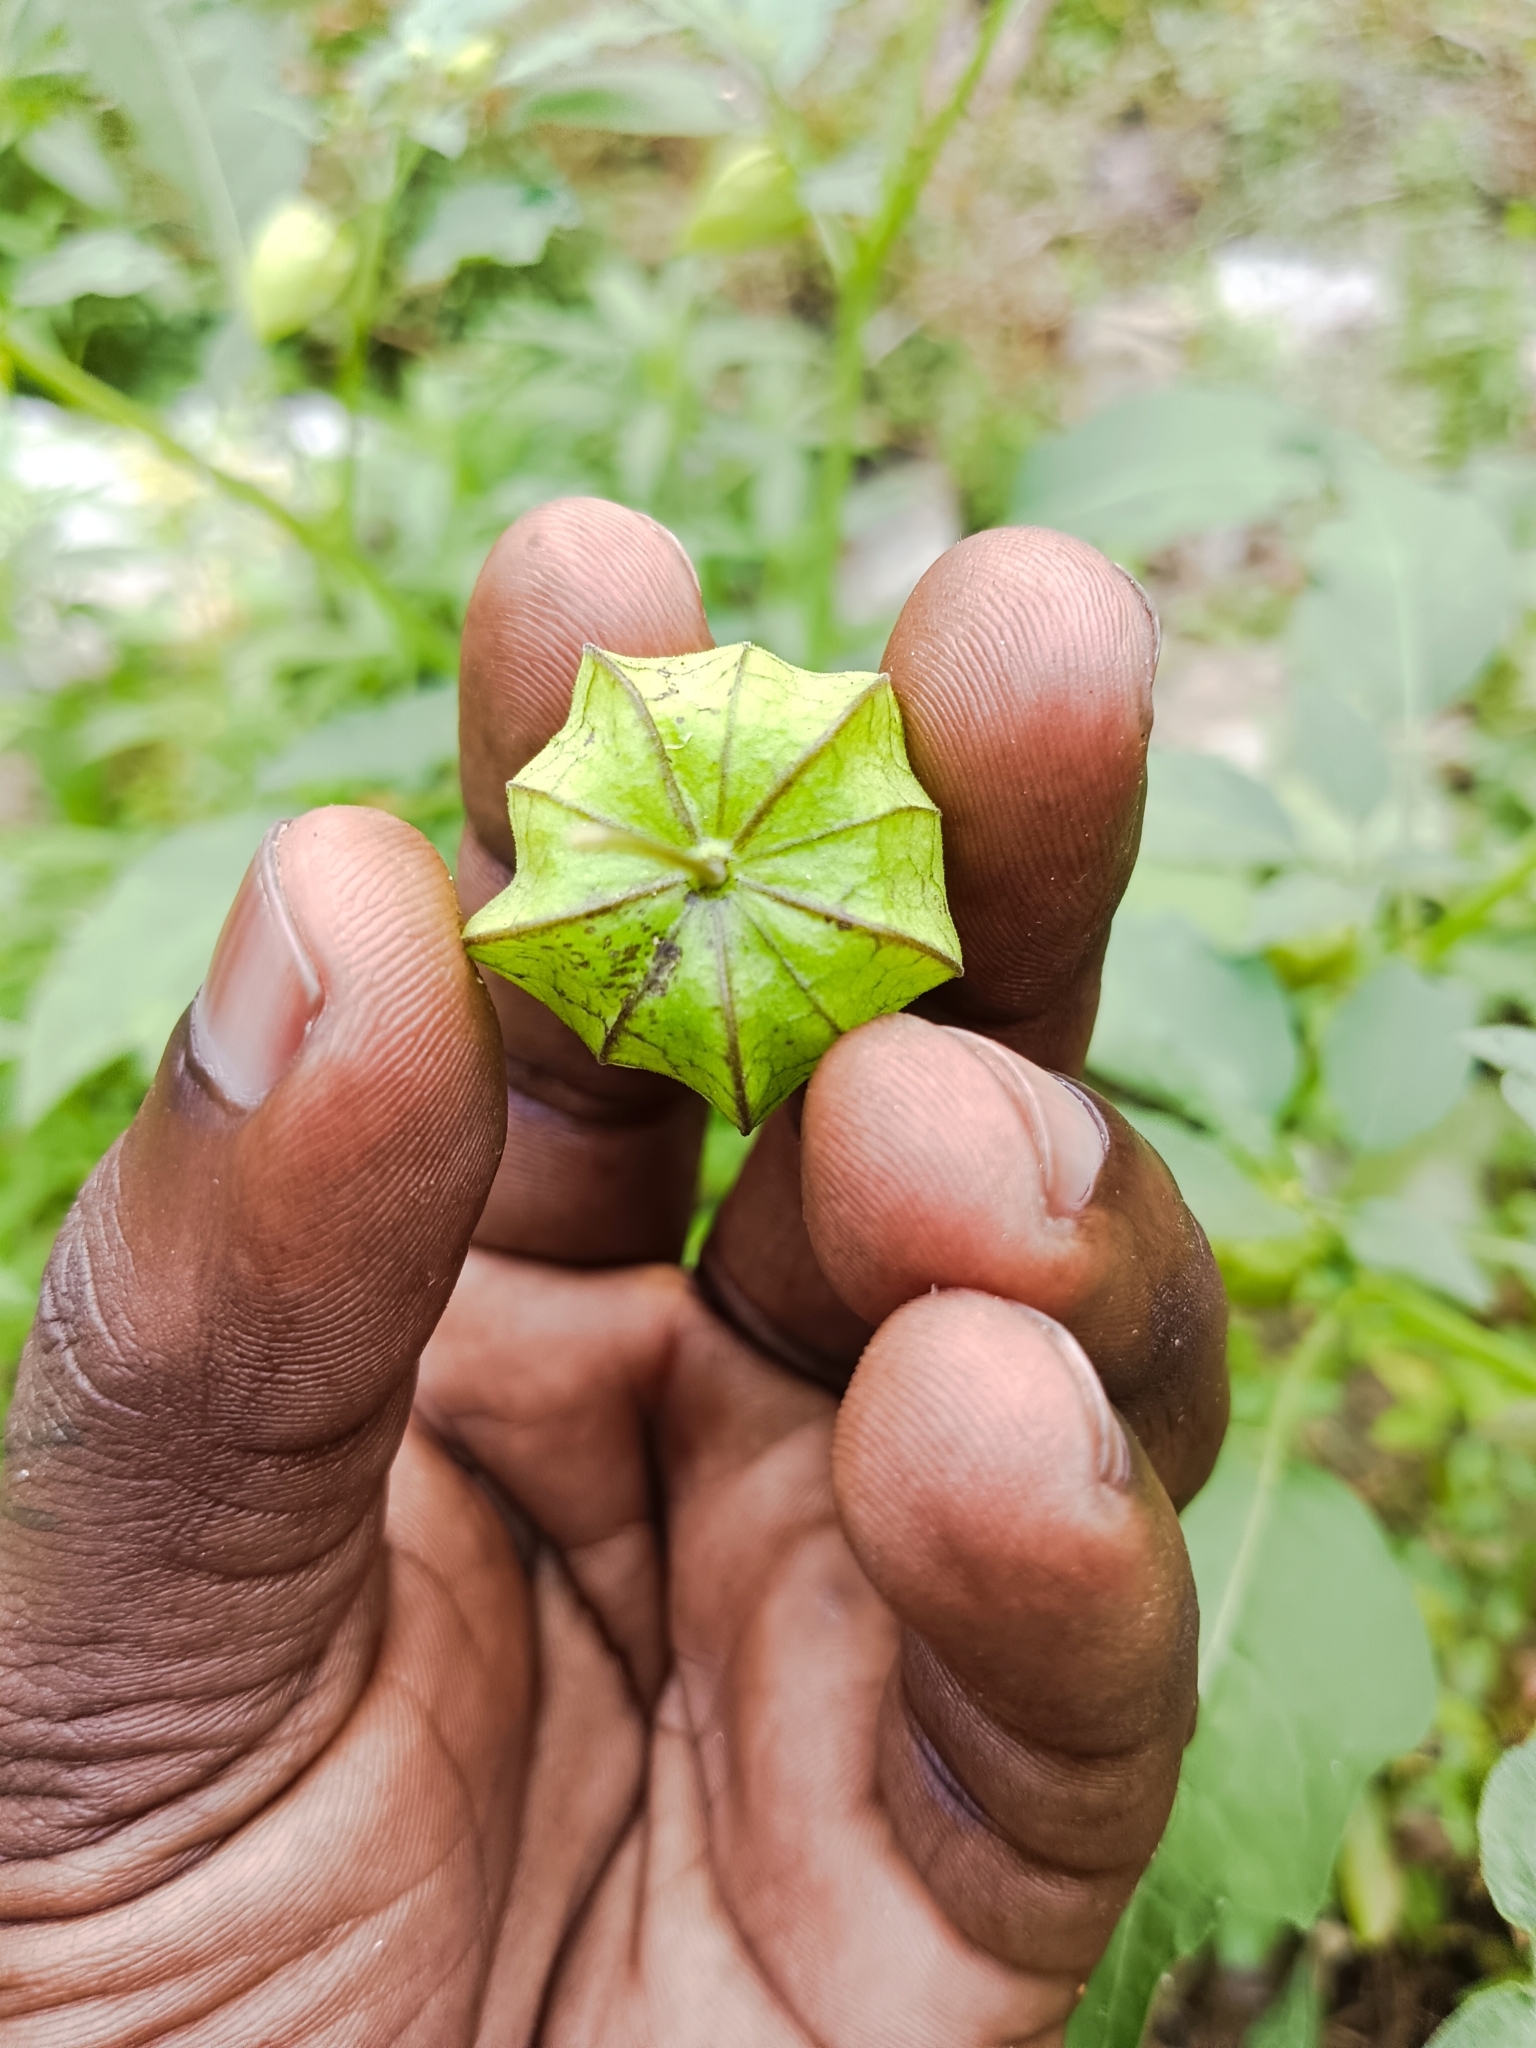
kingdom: Plantae
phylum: Tracheophyta
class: Magnoliopsida
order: Solanales
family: Solanaceae
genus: Physalis
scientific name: Physalis angulata
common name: Angular winter-cherry
